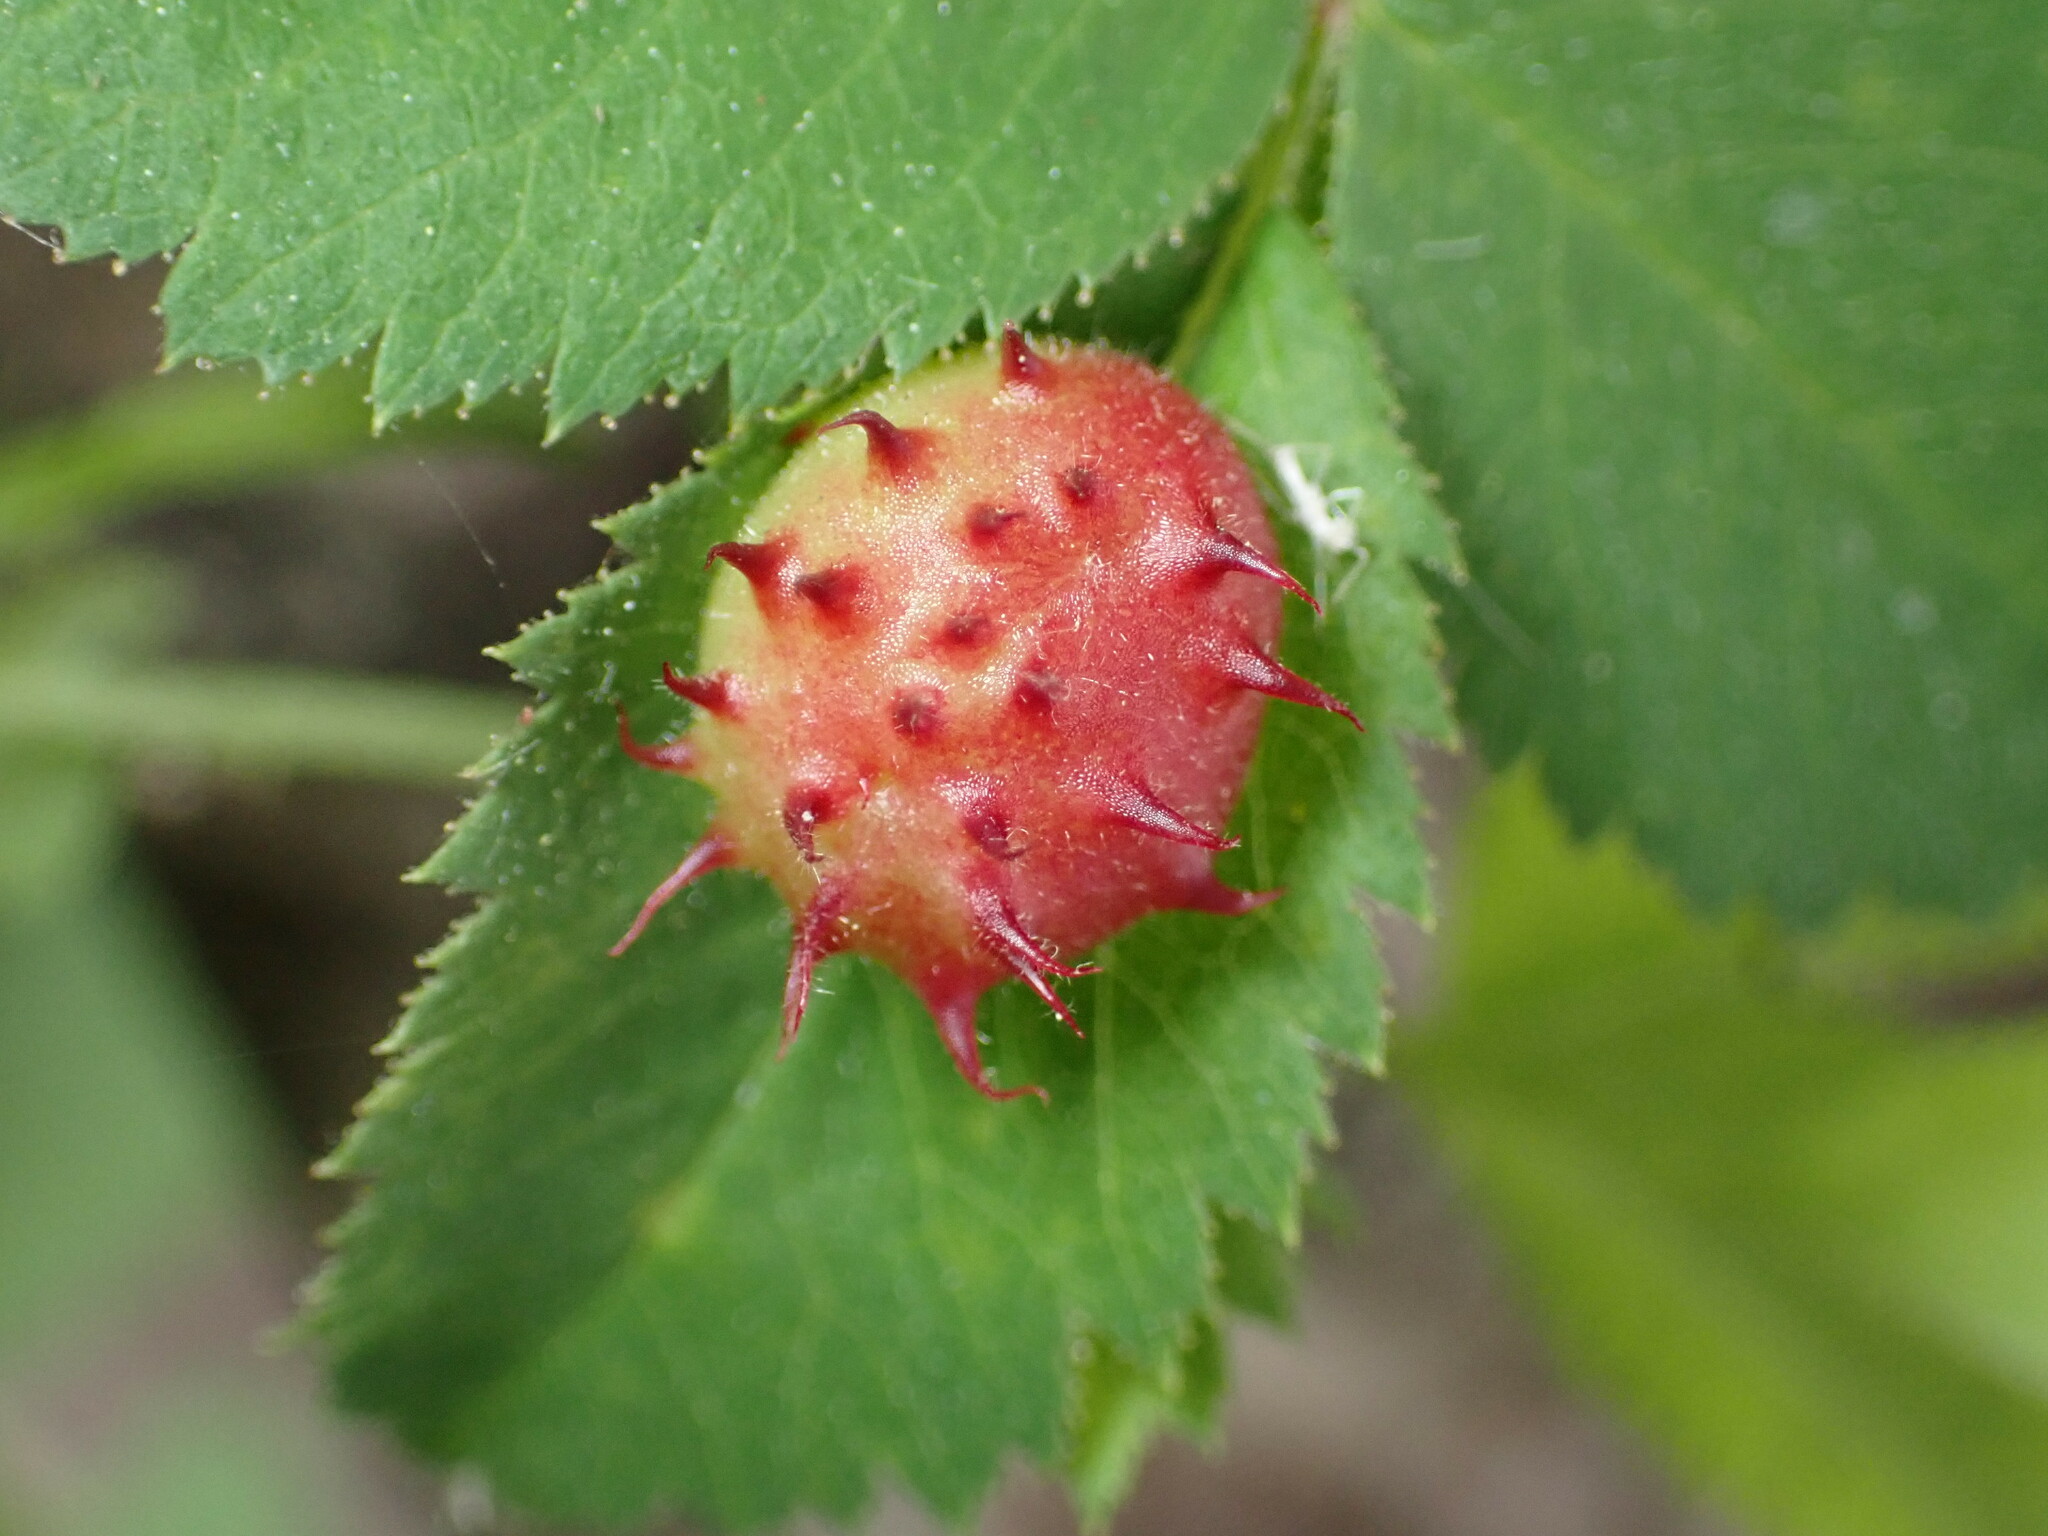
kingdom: Animalia
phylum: Arthropoda
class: Insecta
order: Hymenoptera
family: Cynipidae
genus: Diplolepis
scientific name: Diplolepis polita
